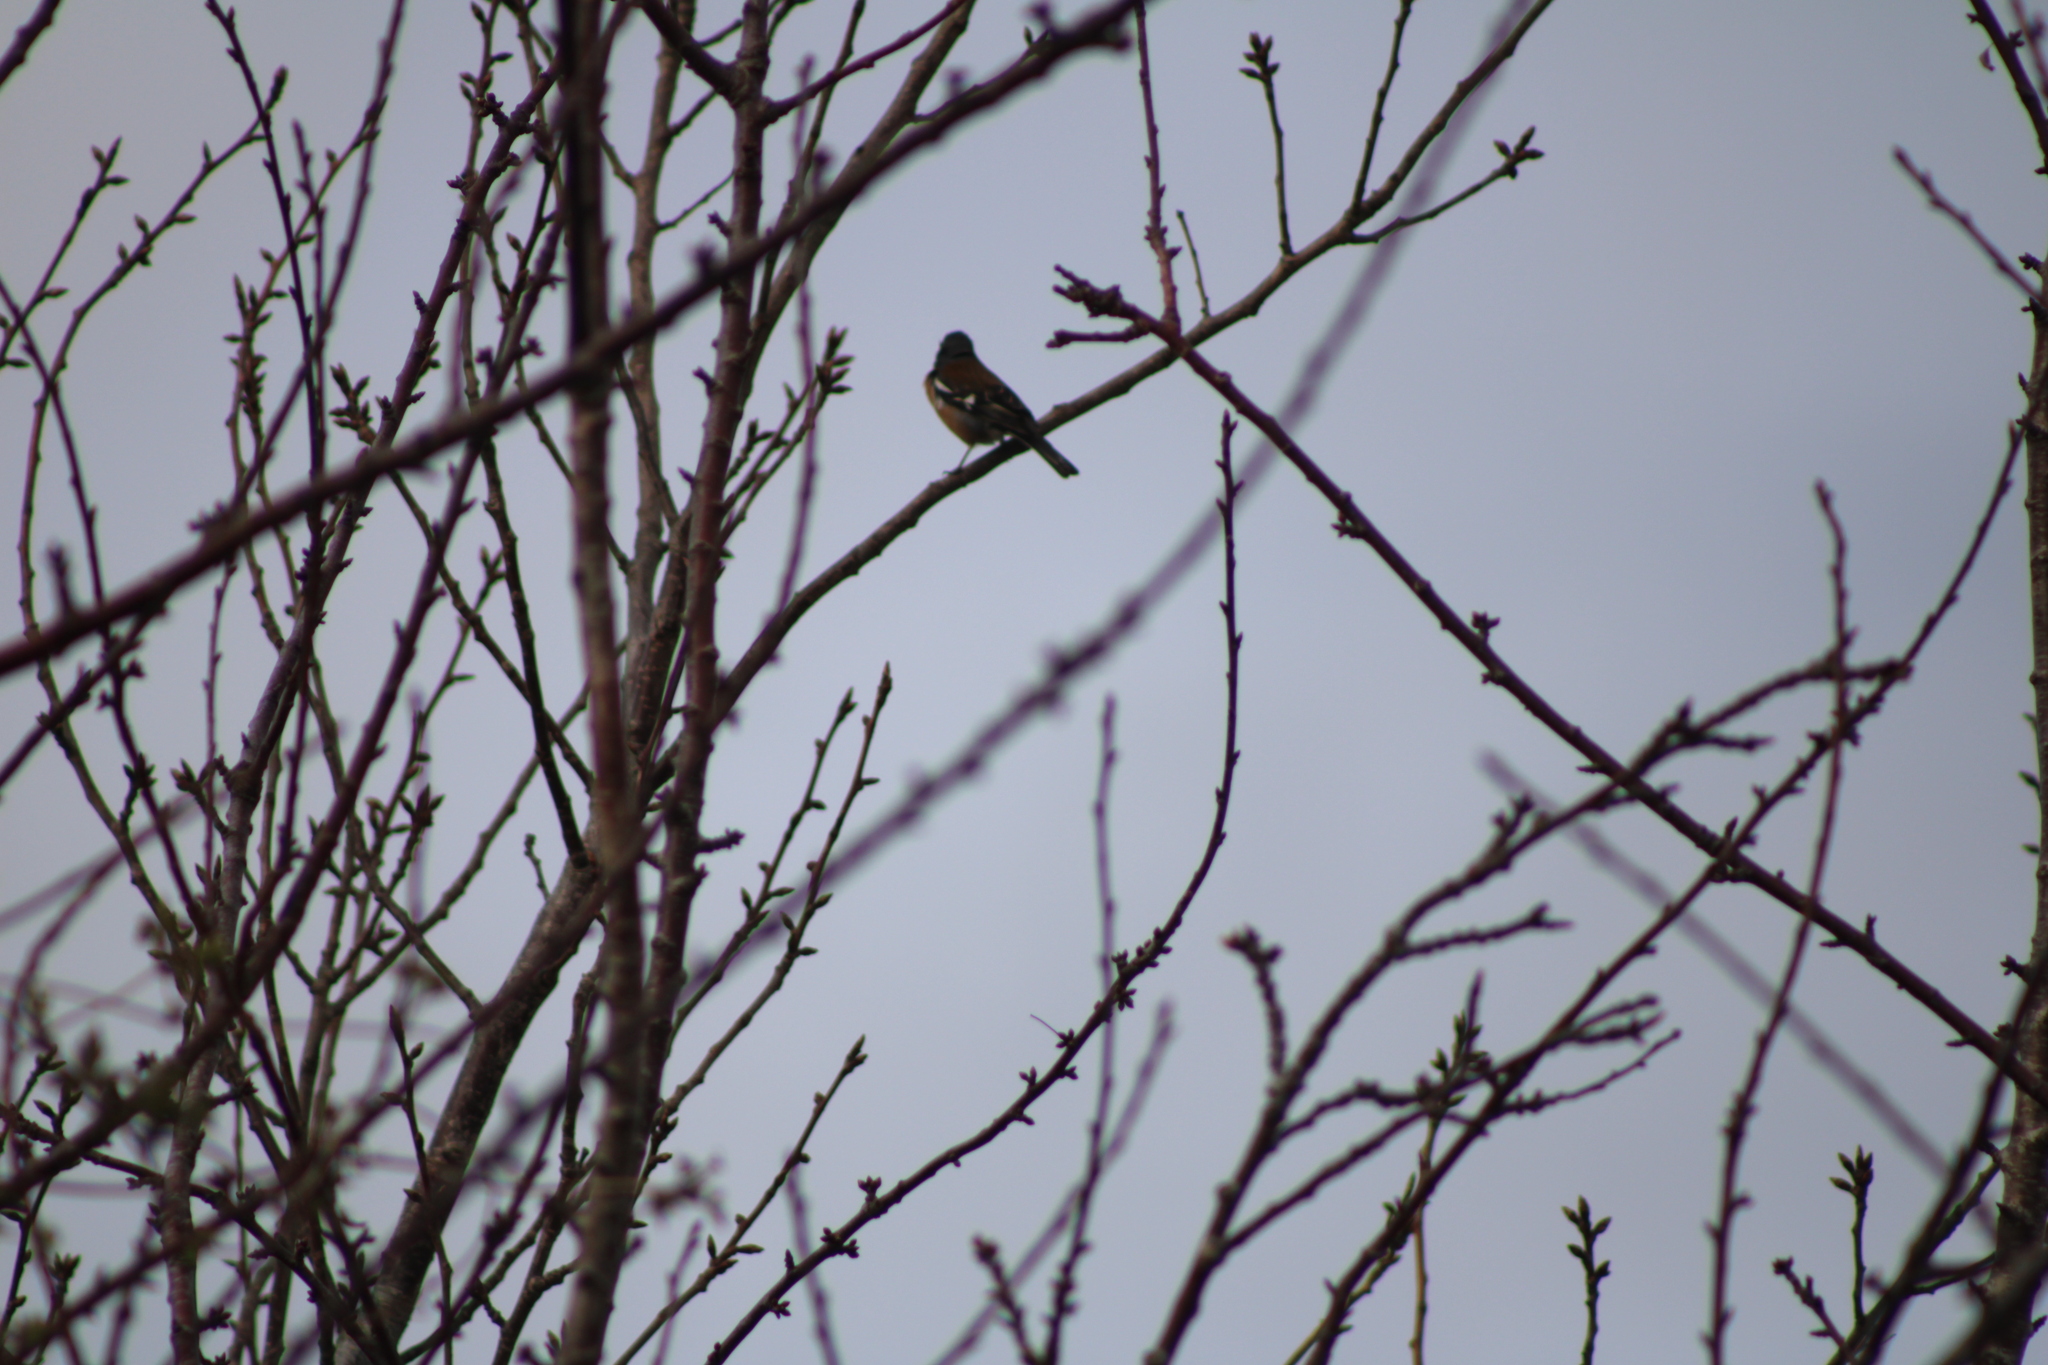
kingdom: Animalia
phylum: Chordata
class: Aves
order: Passeriformes
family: Fringillidae
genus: Fringilla
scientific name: Fringilla coelebs
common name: Common chaffinch
